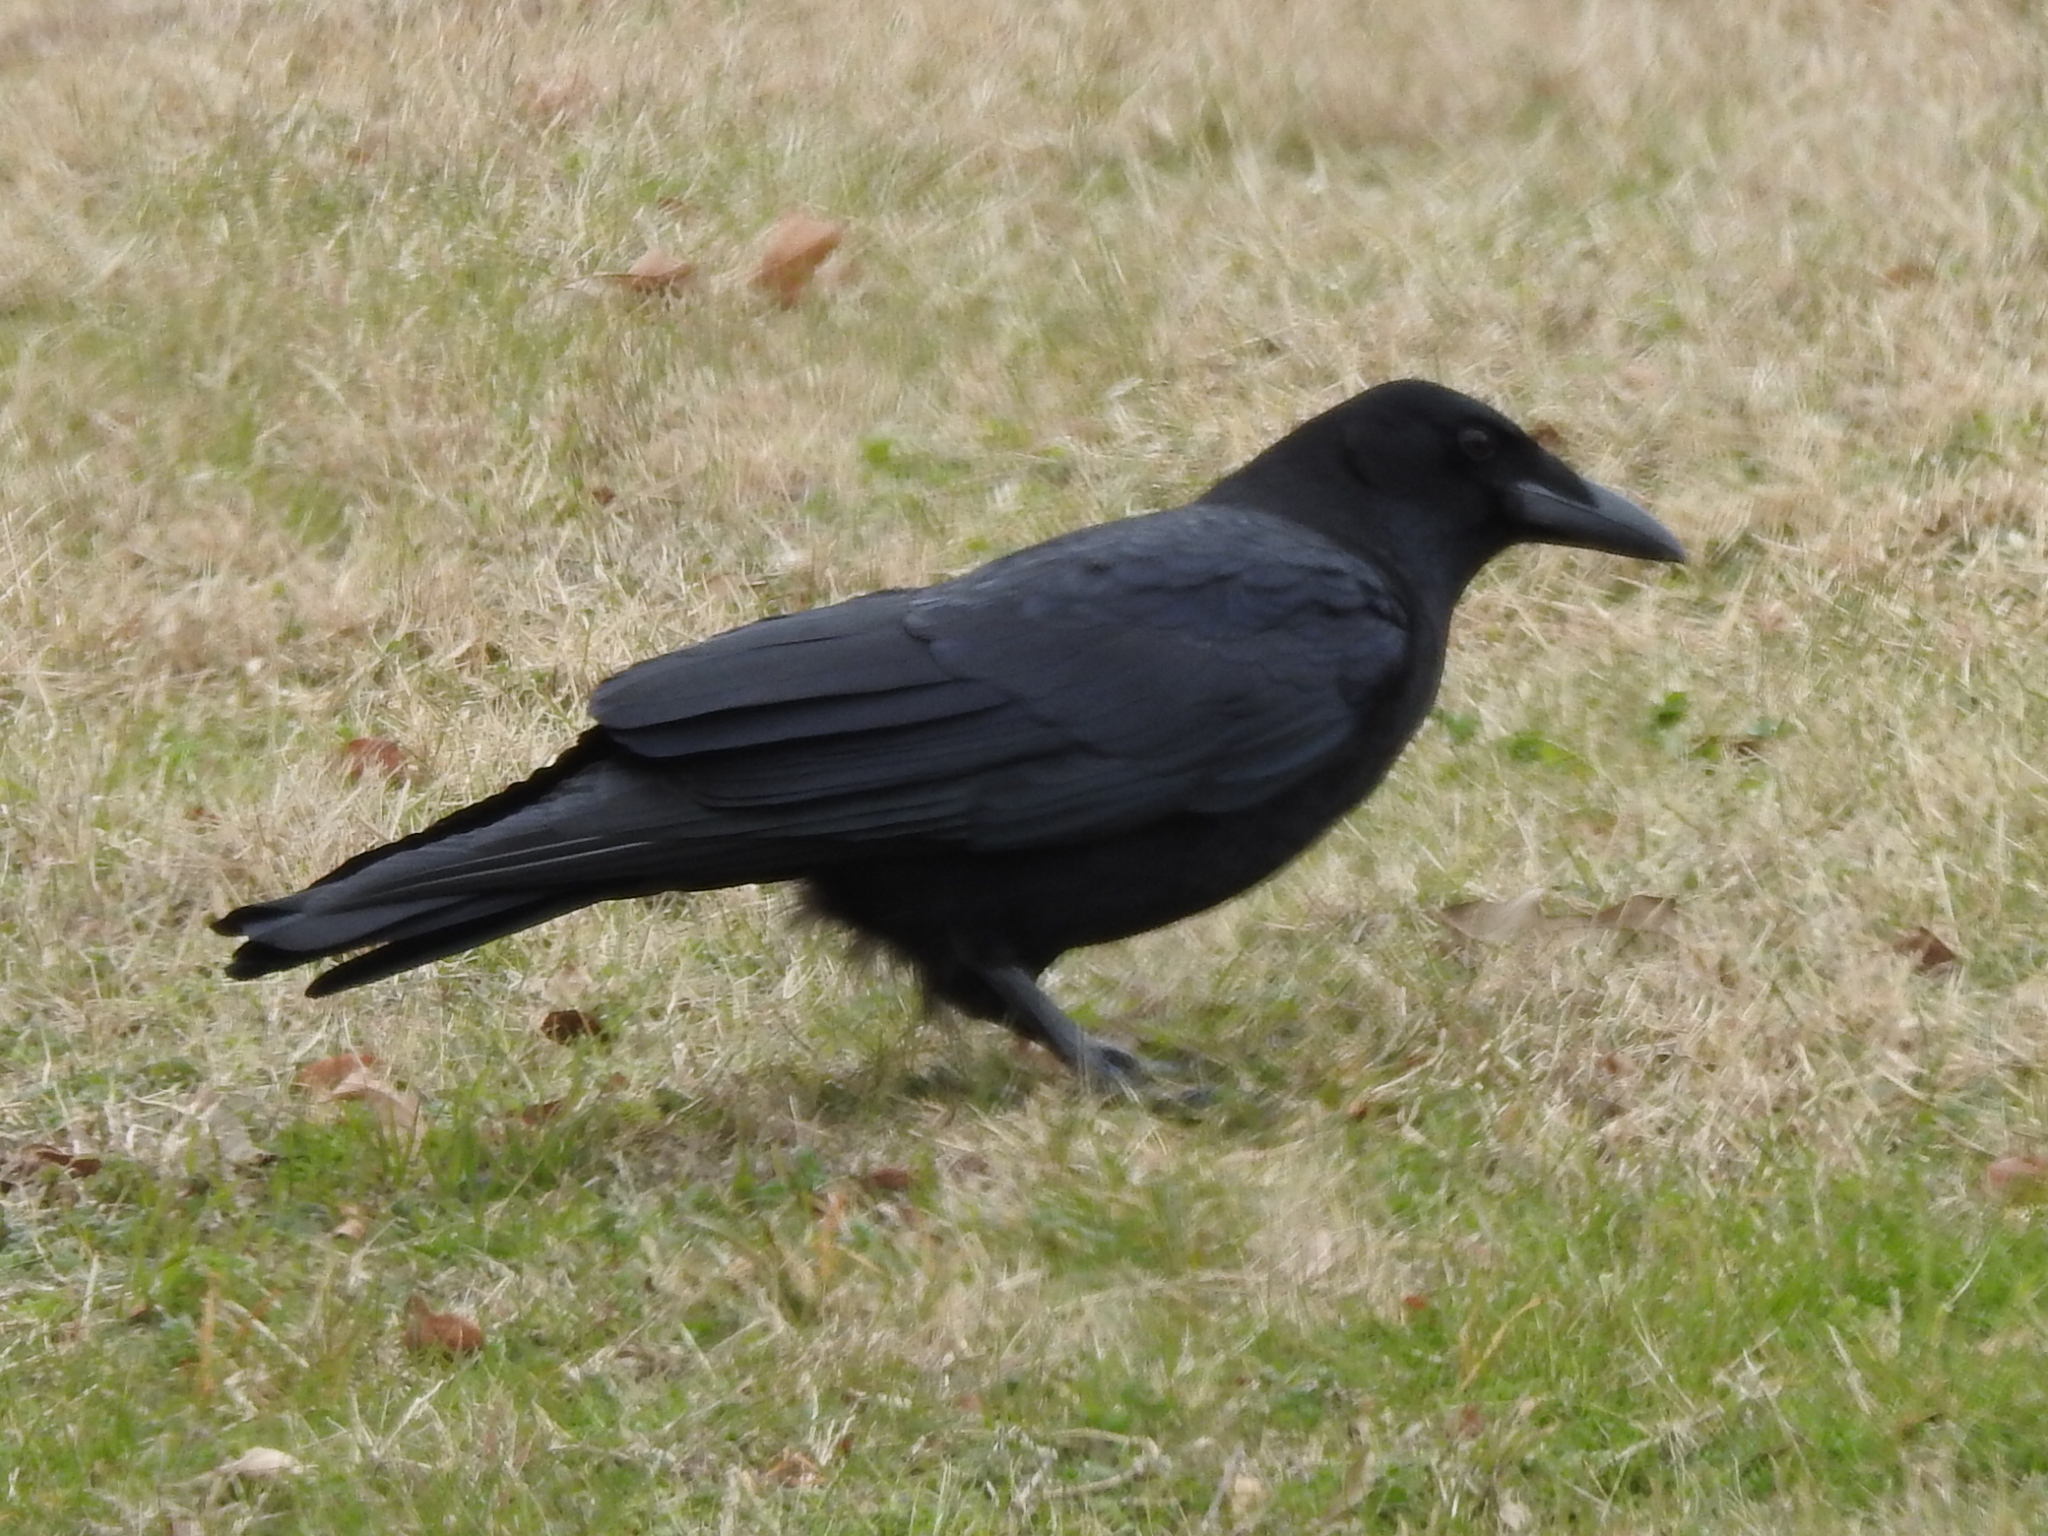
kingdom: Animalia
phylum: Chordata
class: Aves
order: Passeriformes
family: Corvidae
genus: Corvus
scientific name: Corvus brachyrhynchos
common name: American crow
